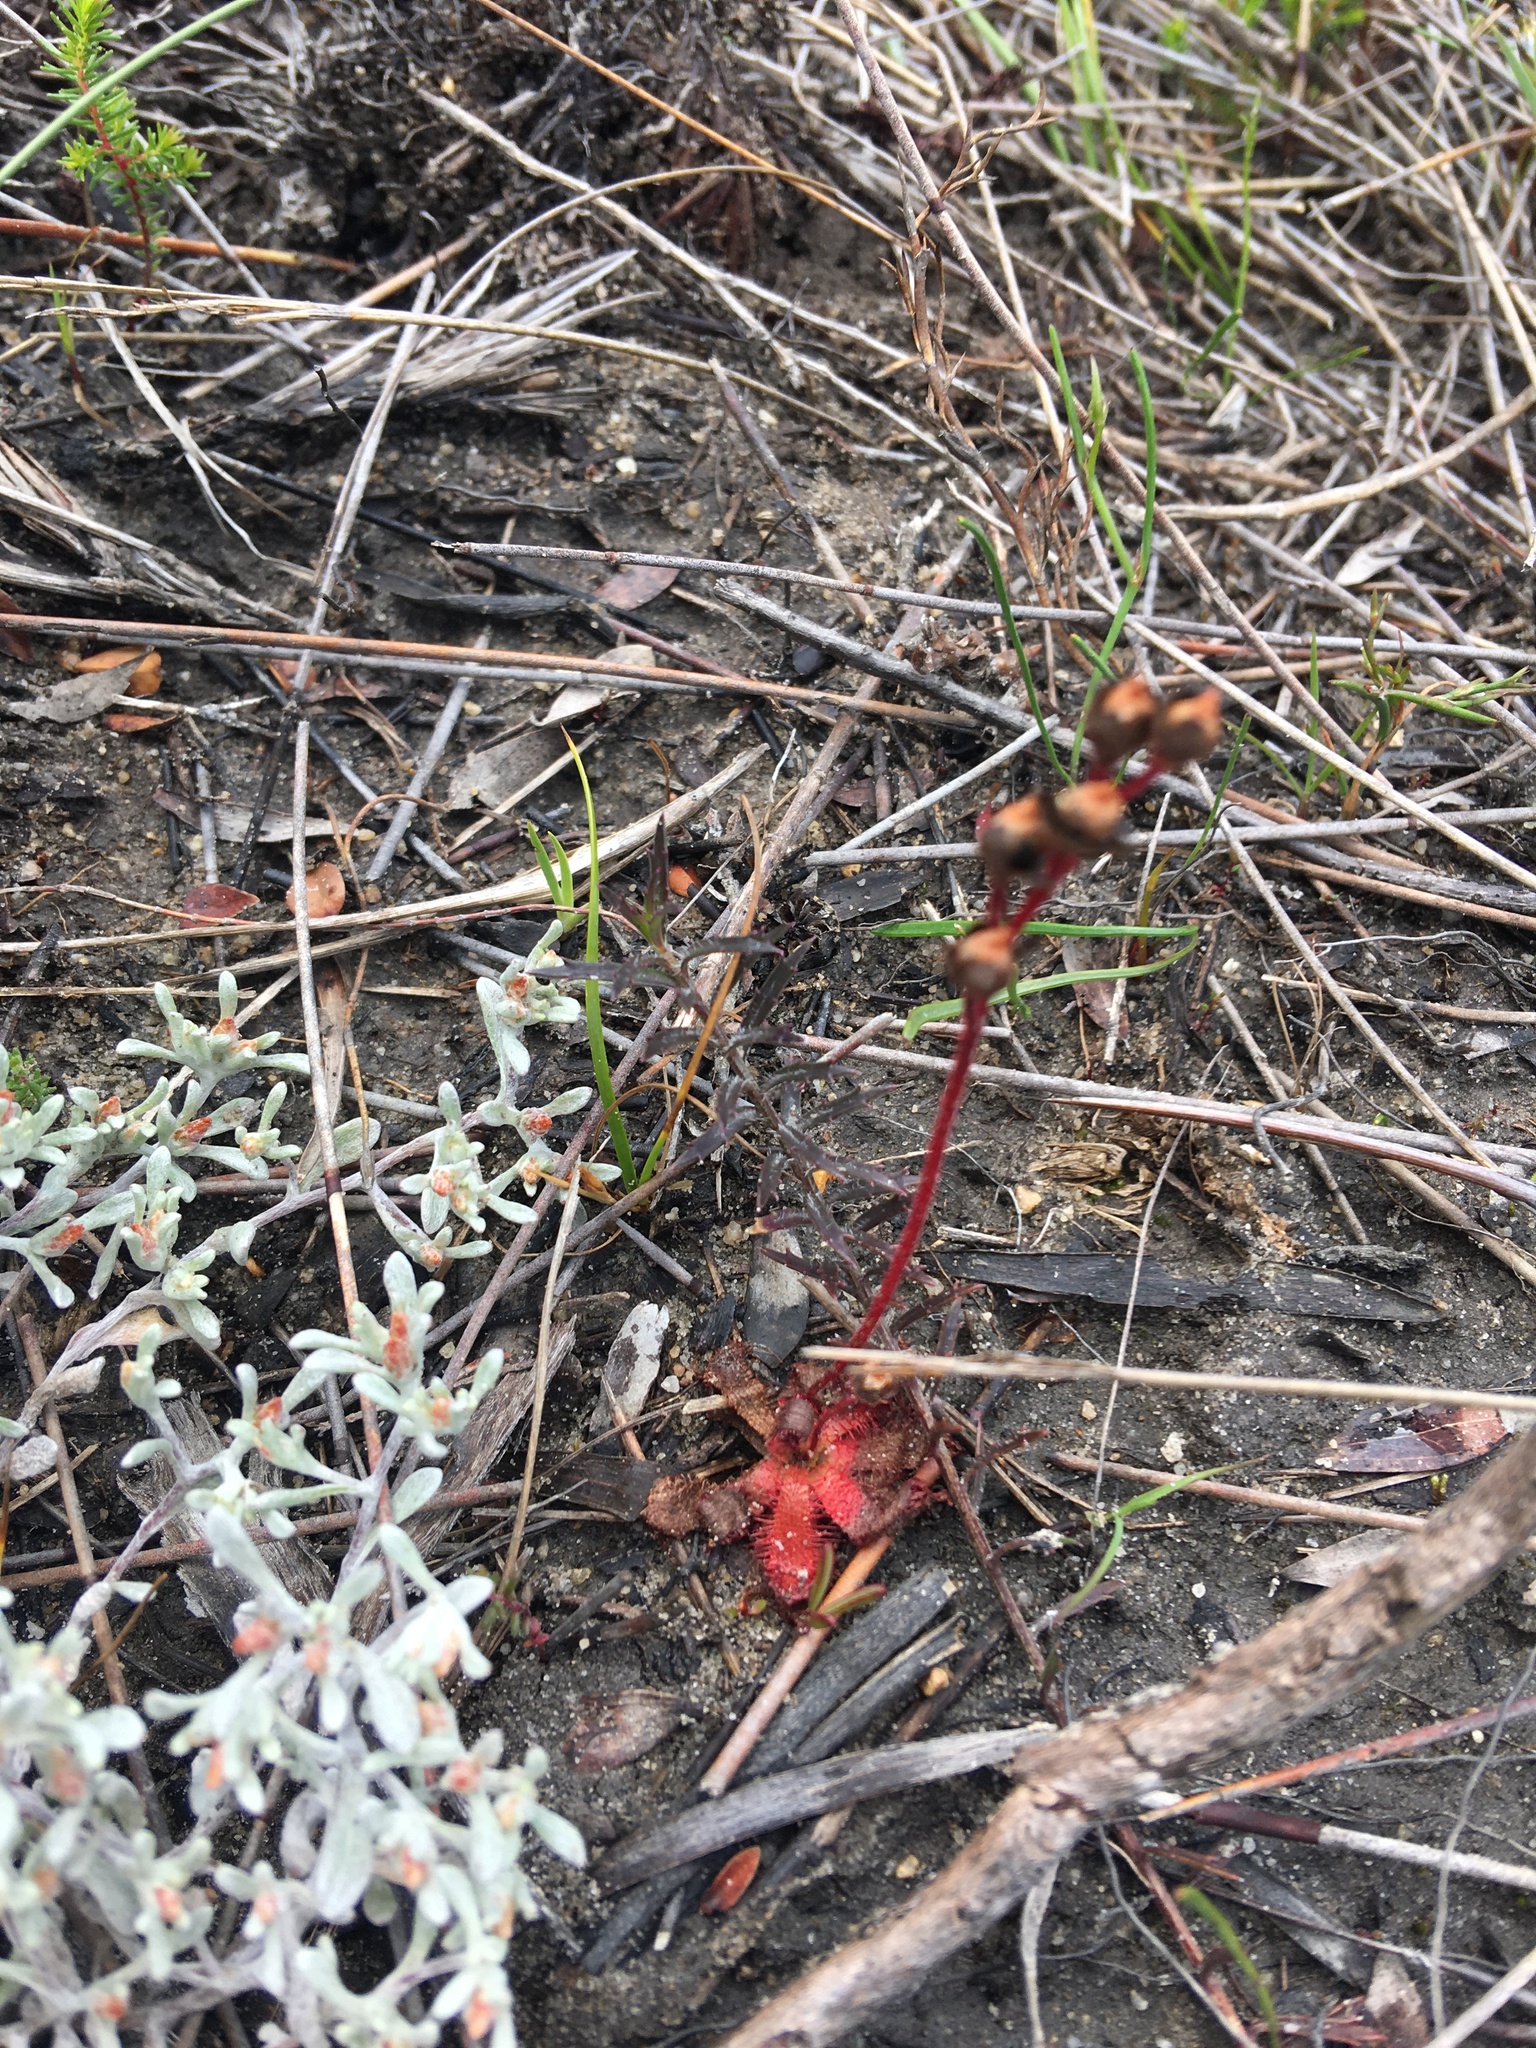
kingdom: Plantae
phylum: Tracheophyta
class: Magnoliopsida
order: Caryophyllales
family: Droseraceae
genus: Drosera
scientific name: Drosera trinervia
